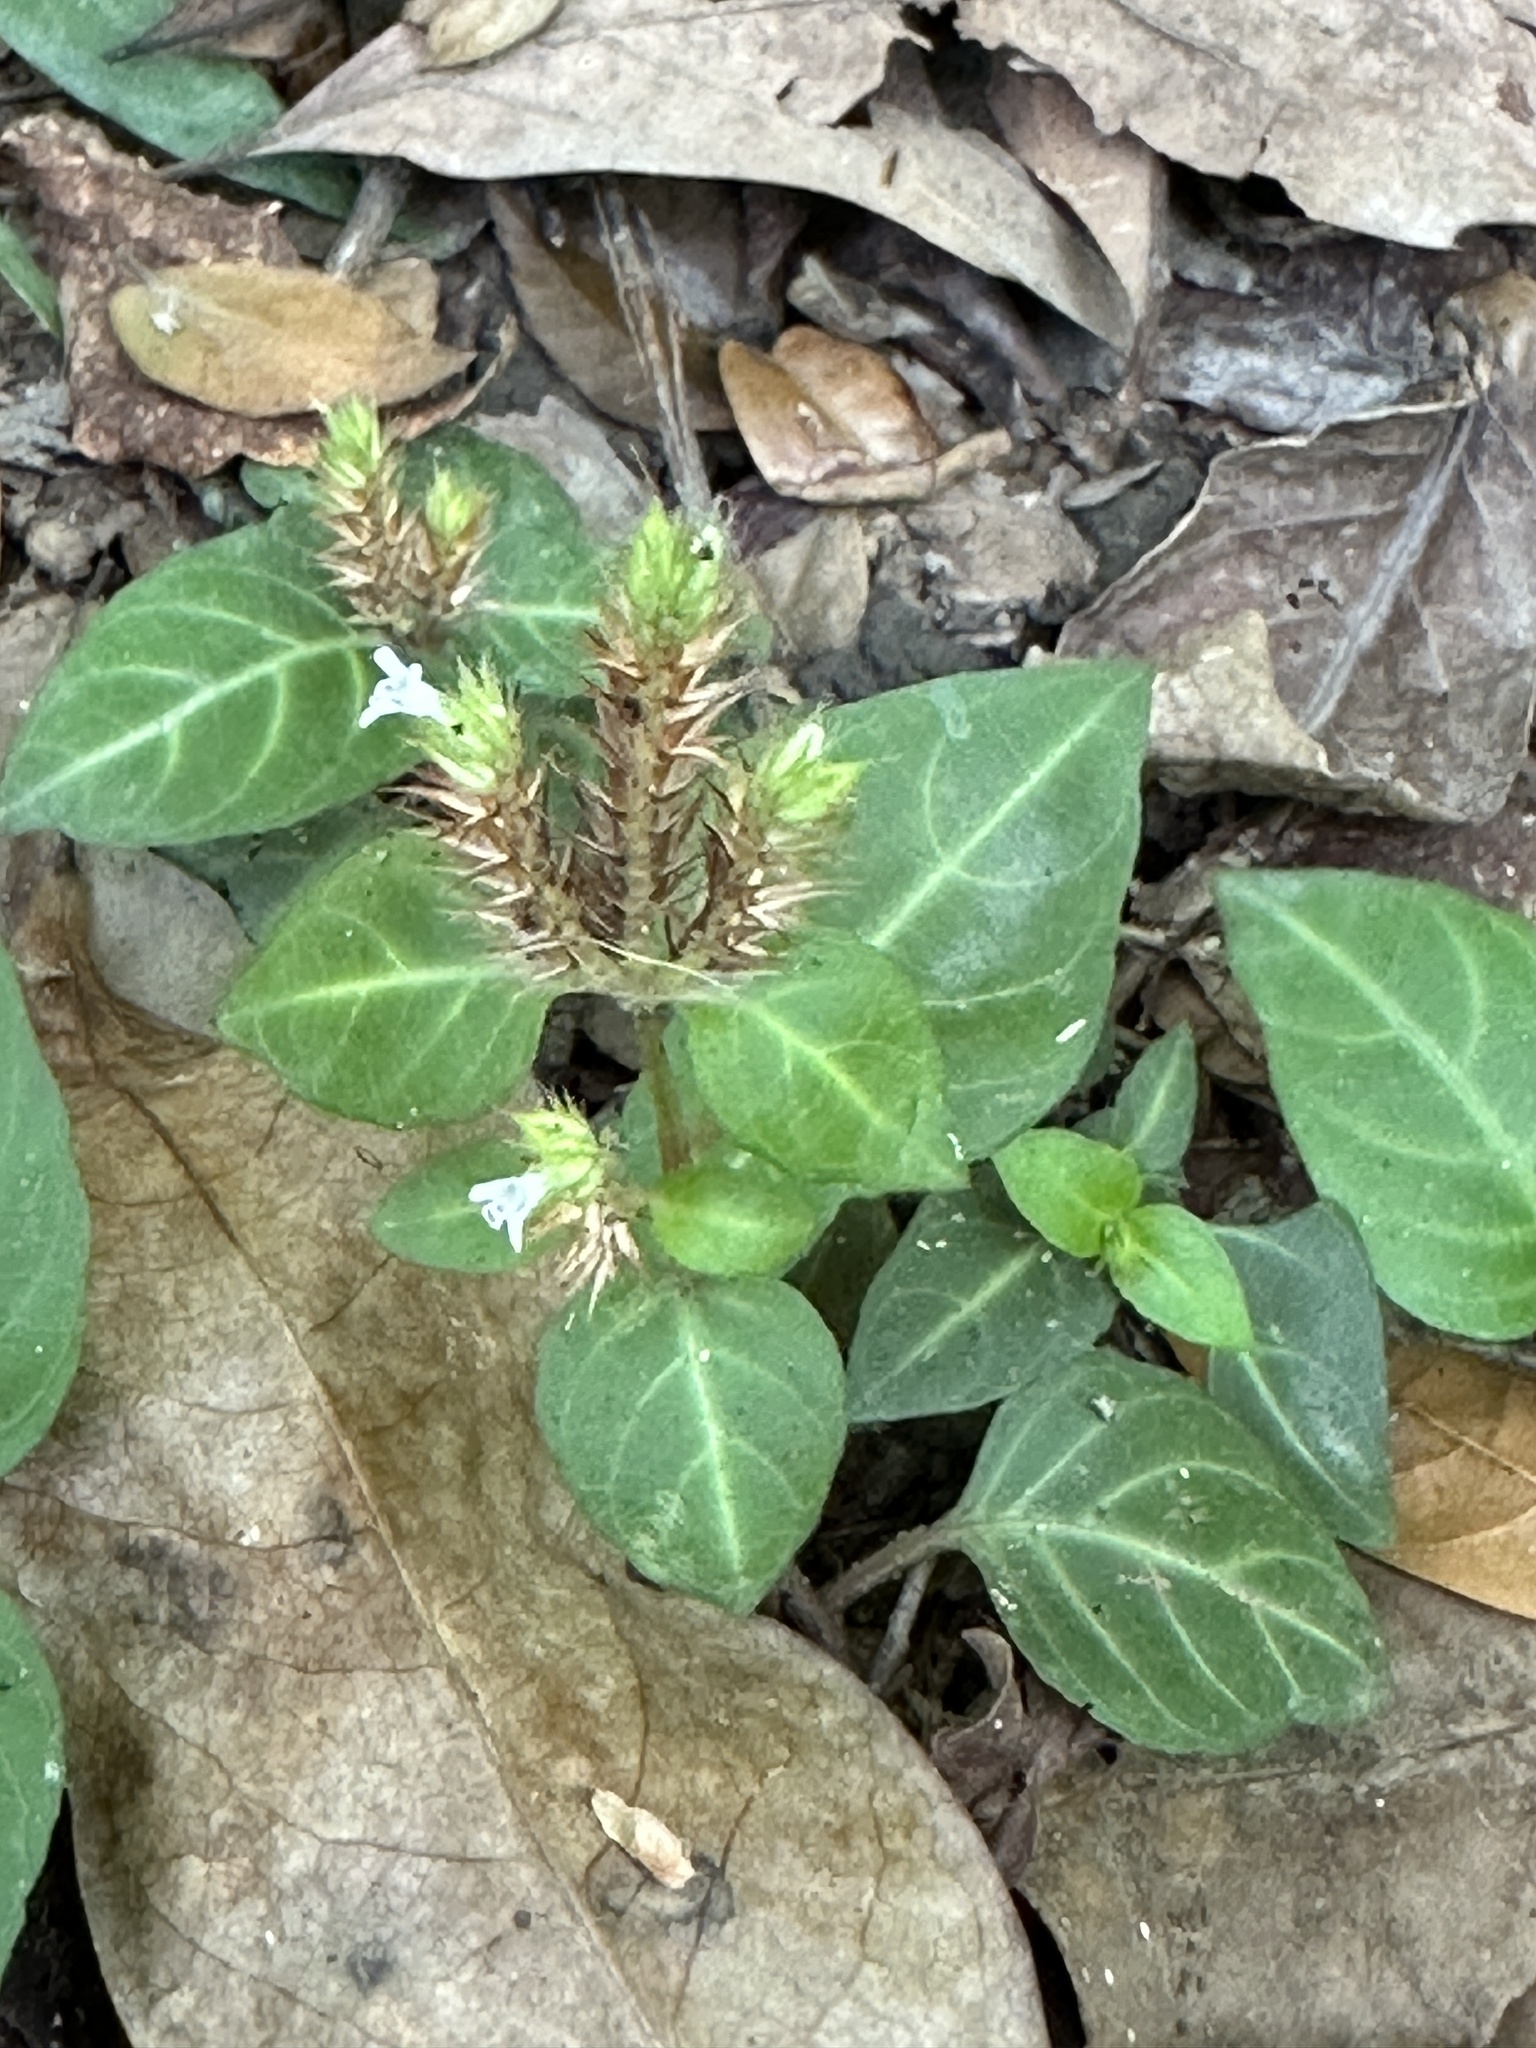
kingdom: Plantae
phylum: Tracheophyta
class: Magnoliopsida
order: Lamiales
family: Acanthaceae
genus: Lepidagathis
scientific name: Lepidagathis inaequalis
